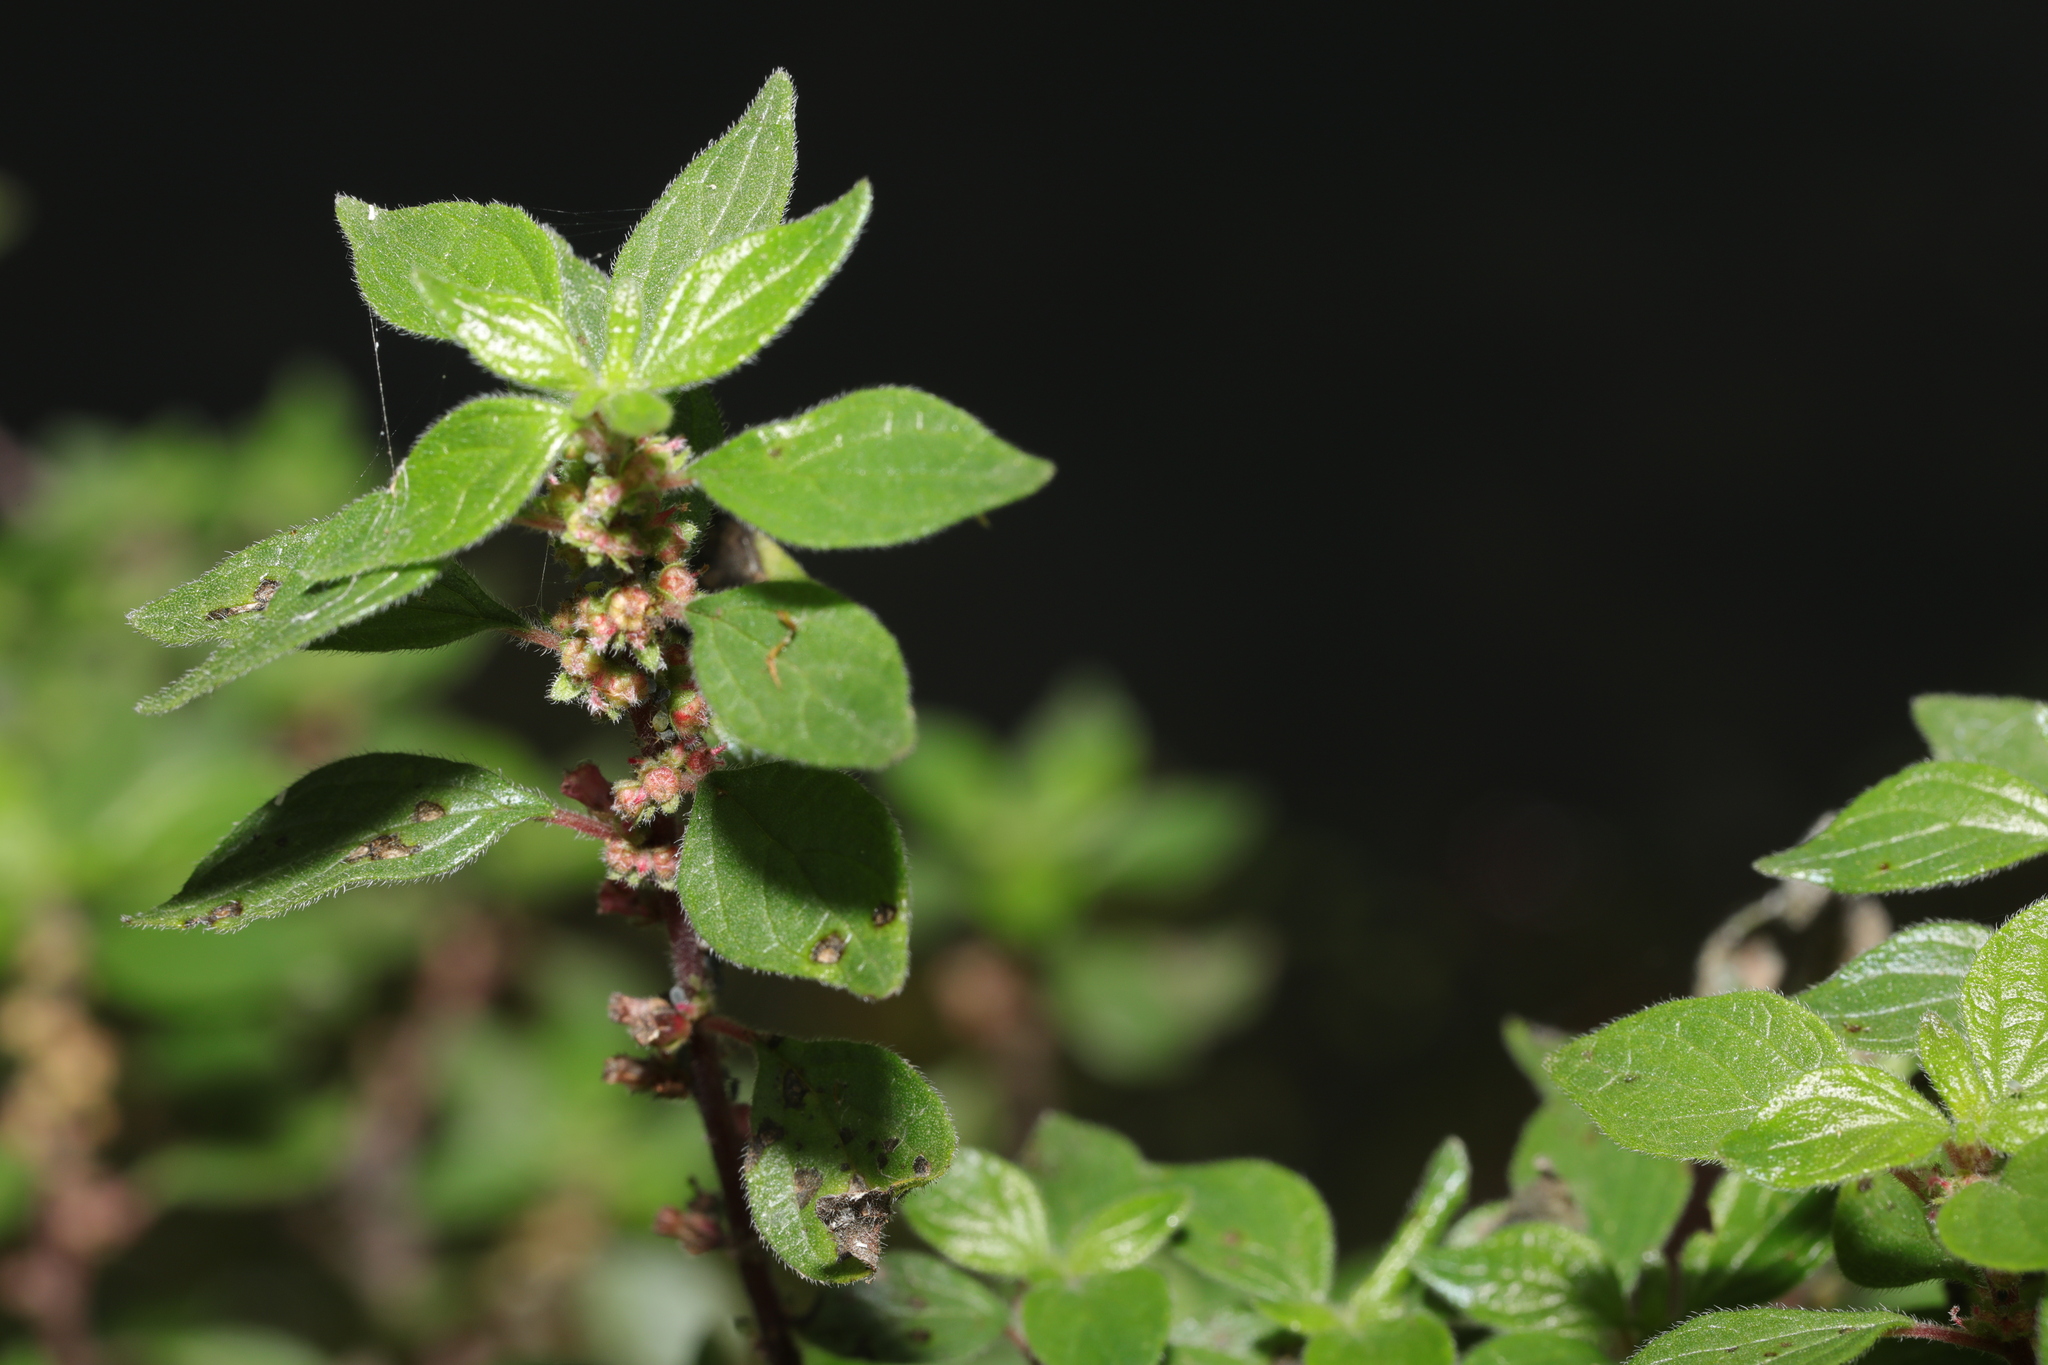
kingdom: Plantae
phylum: Tracheophyta
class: Magnoliopsida
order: Rosales
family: Urticaceae
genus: Parietaria
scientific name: Parietaria judaica
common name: Pellitory-of-the-wall
